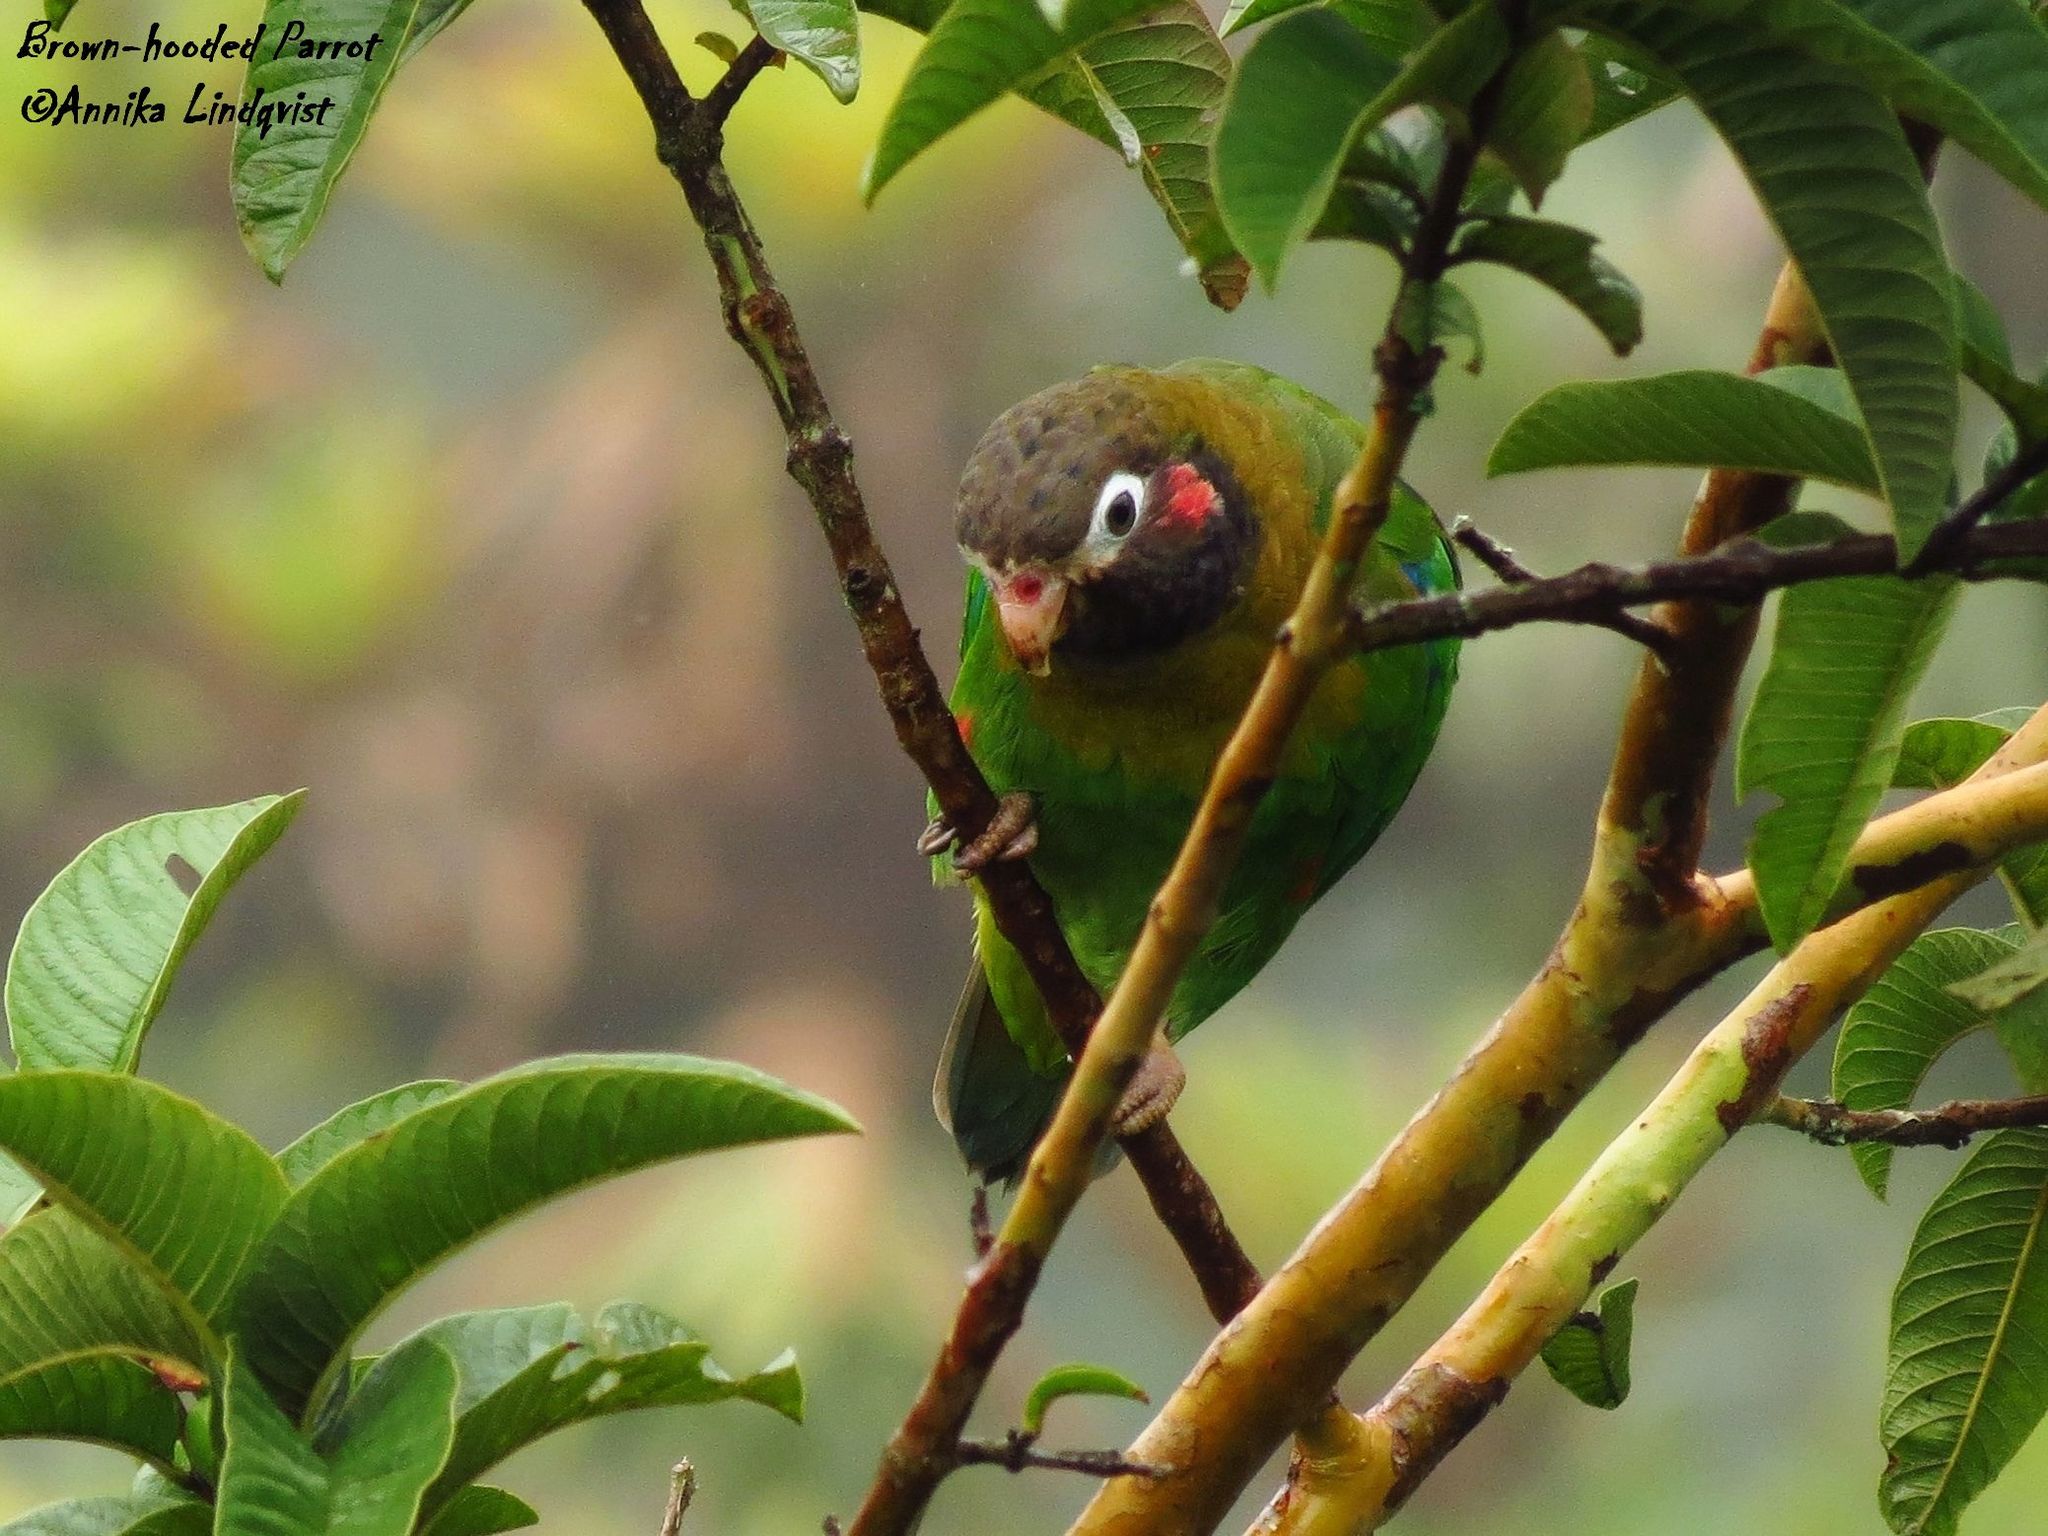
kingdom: Animalia
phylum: Chordata
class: Aves
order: Psittaciformes
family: Psittacidae
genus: Pionopsitta
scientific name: Pionopsitta haematotis
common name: Brown-hooded parrot
